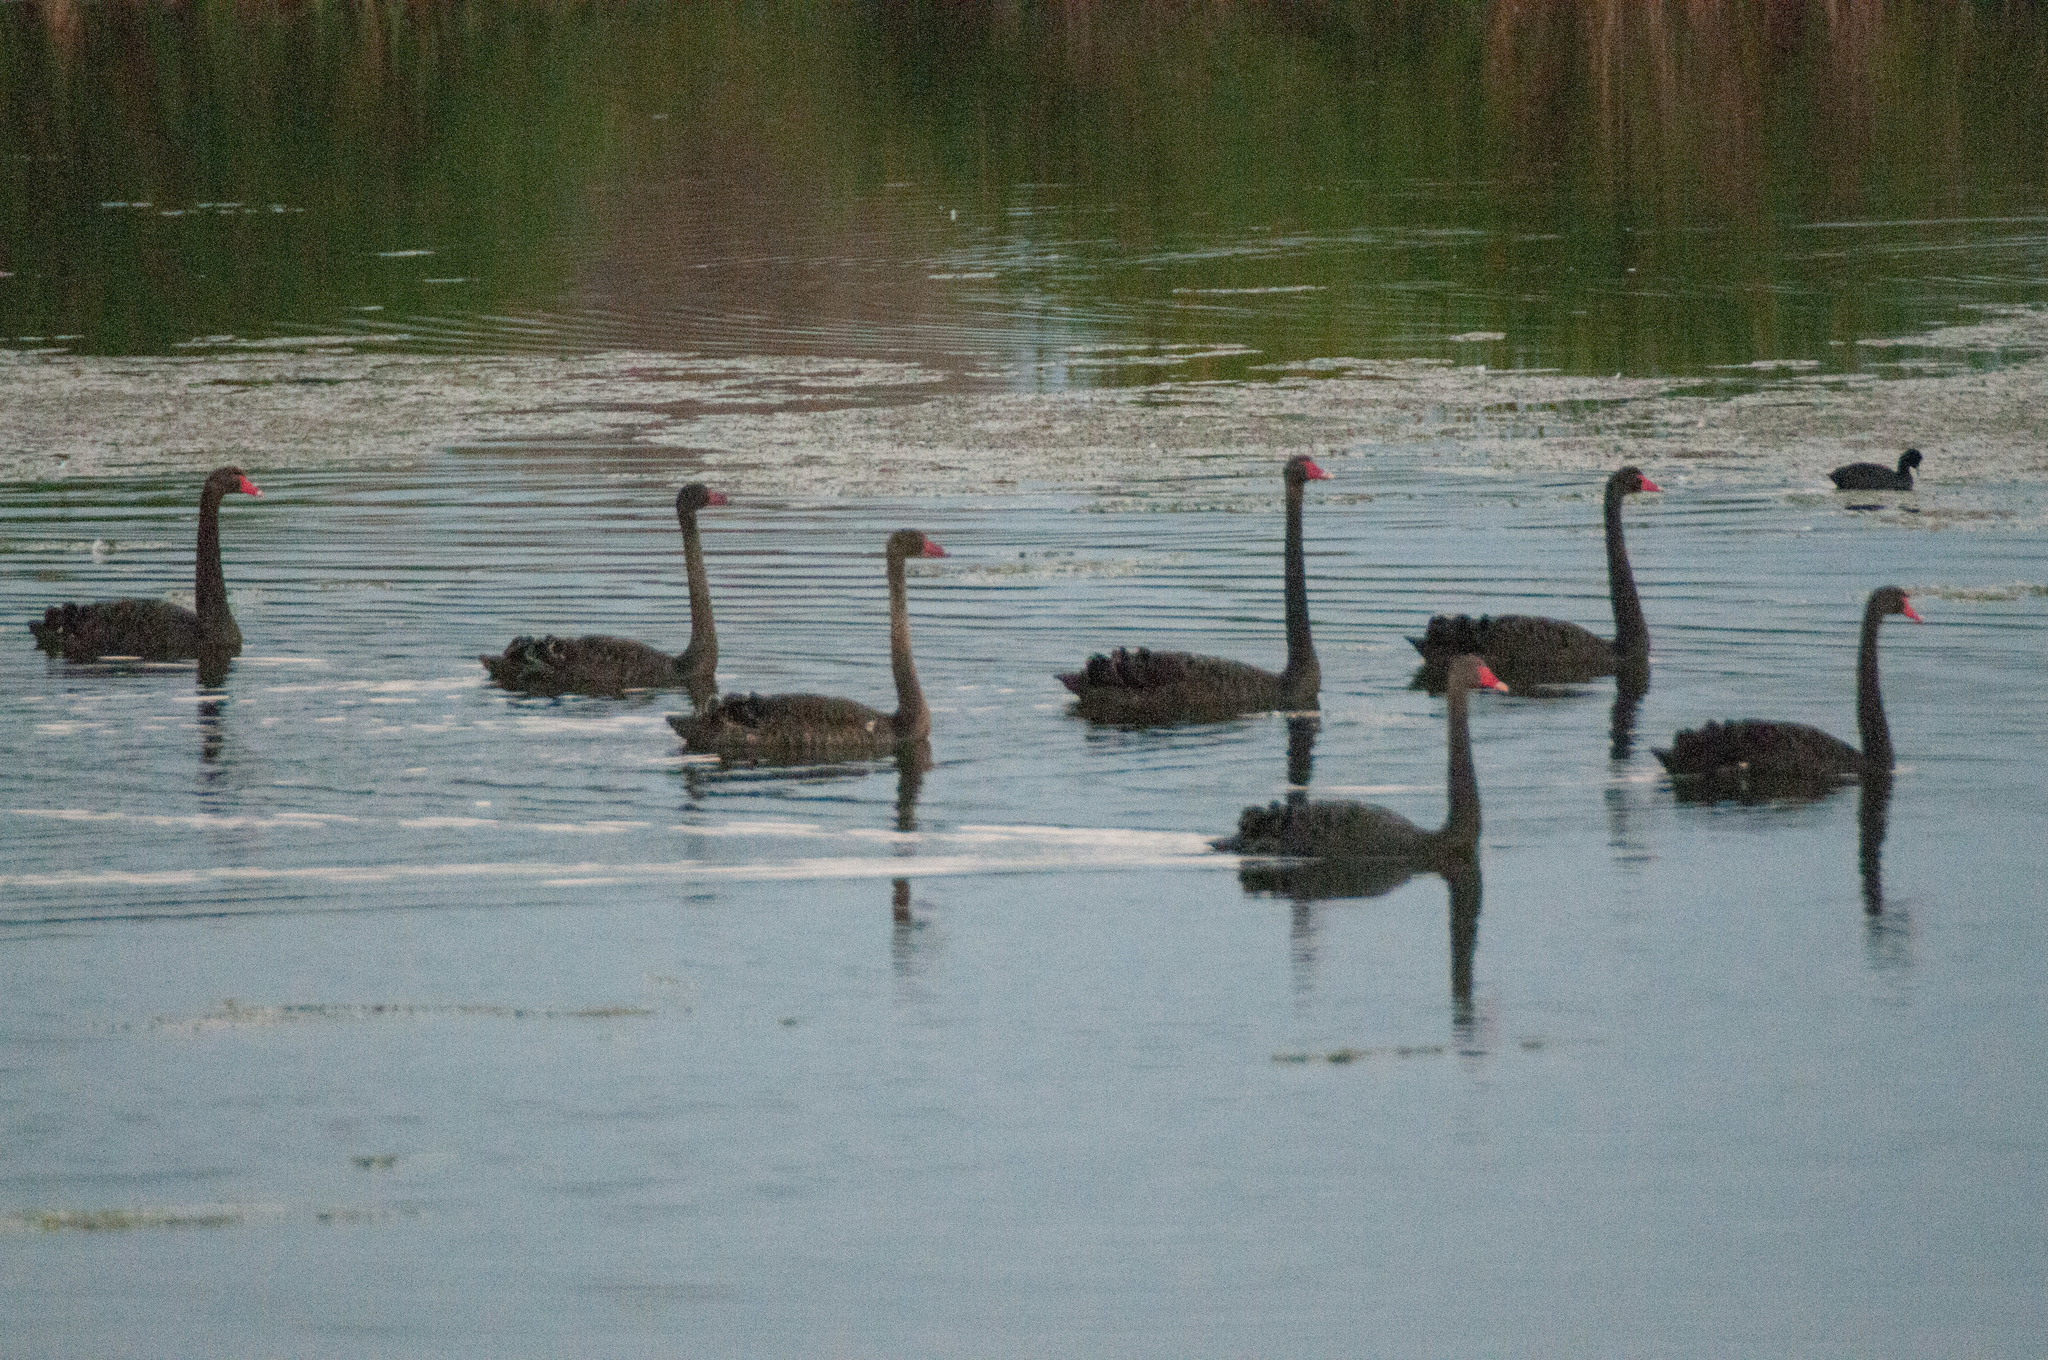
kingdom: Animalia
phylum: Chordata
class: Aves
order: Anseriformes
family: Anatidae
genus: Cygnus
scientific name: Cygnus atratus
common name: Black swan
